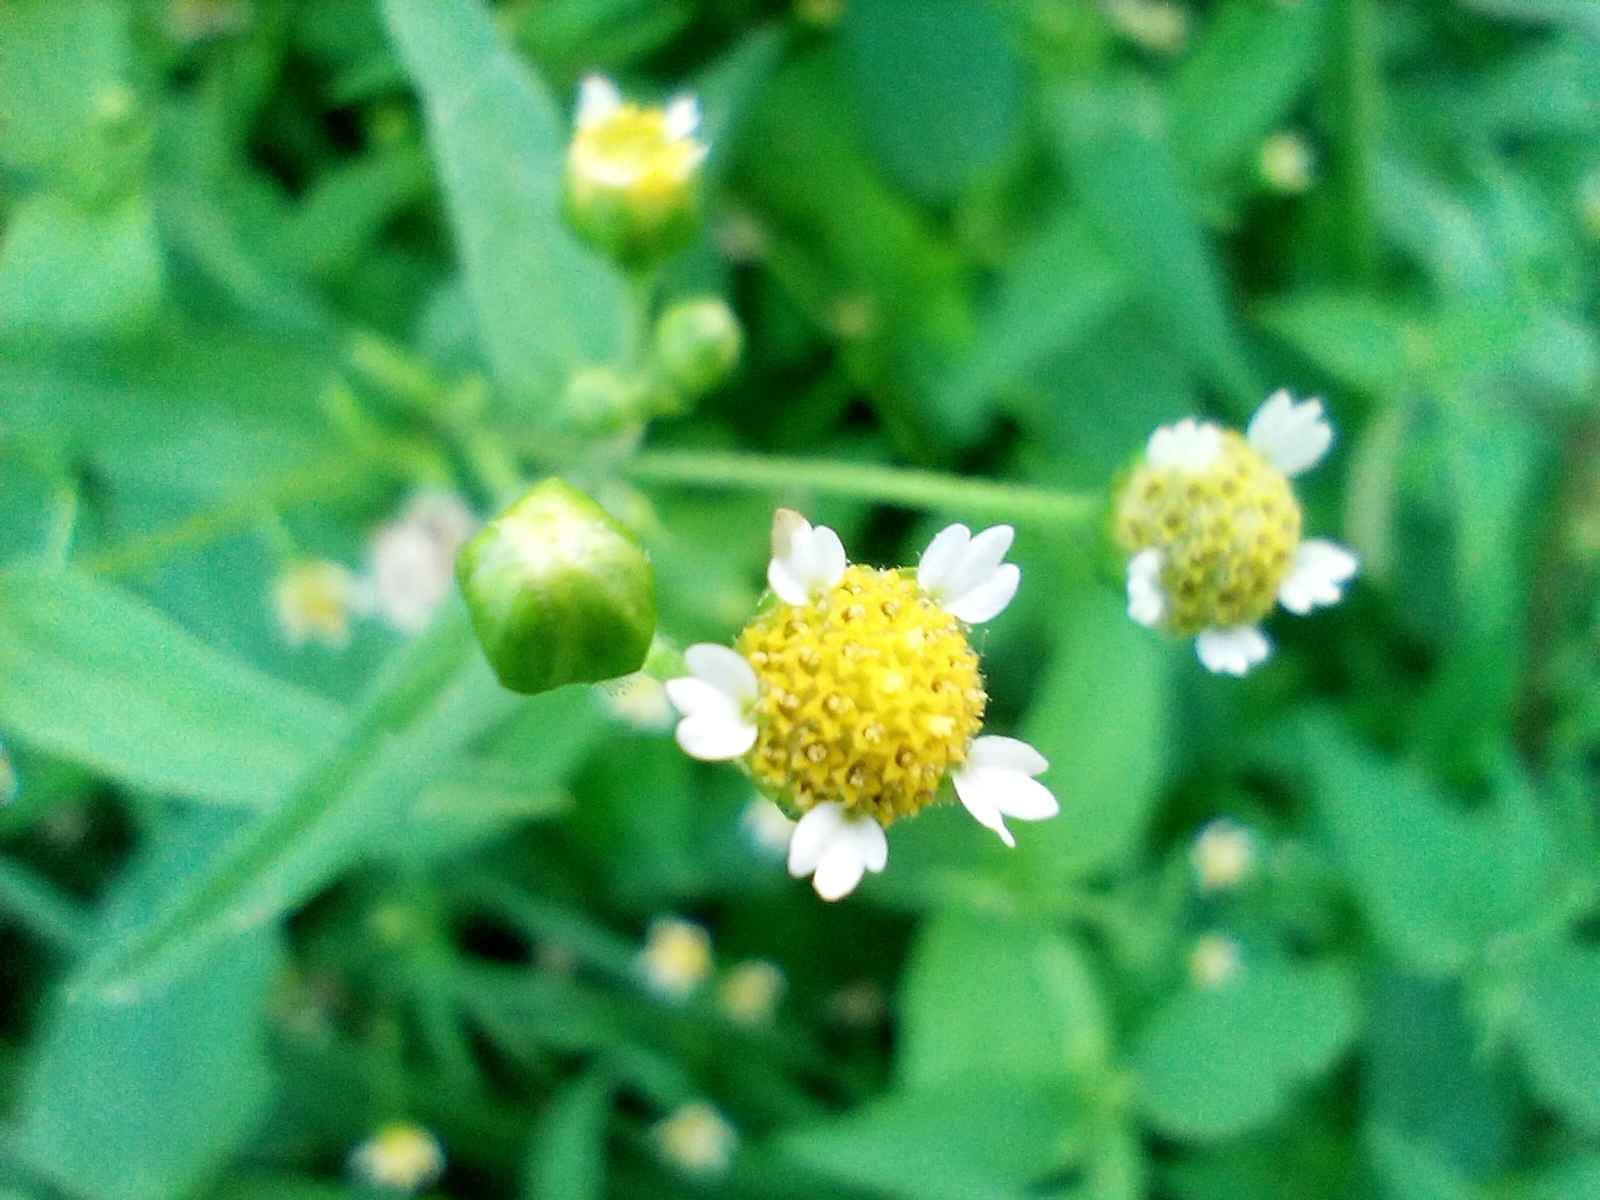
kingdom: Plantae
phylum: Tracheophyta
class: Magnoliopsida
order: Asterales
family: Asteraceae
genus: Galinsoga
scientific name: Galinsoga parviflora
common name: Gallant soldier
